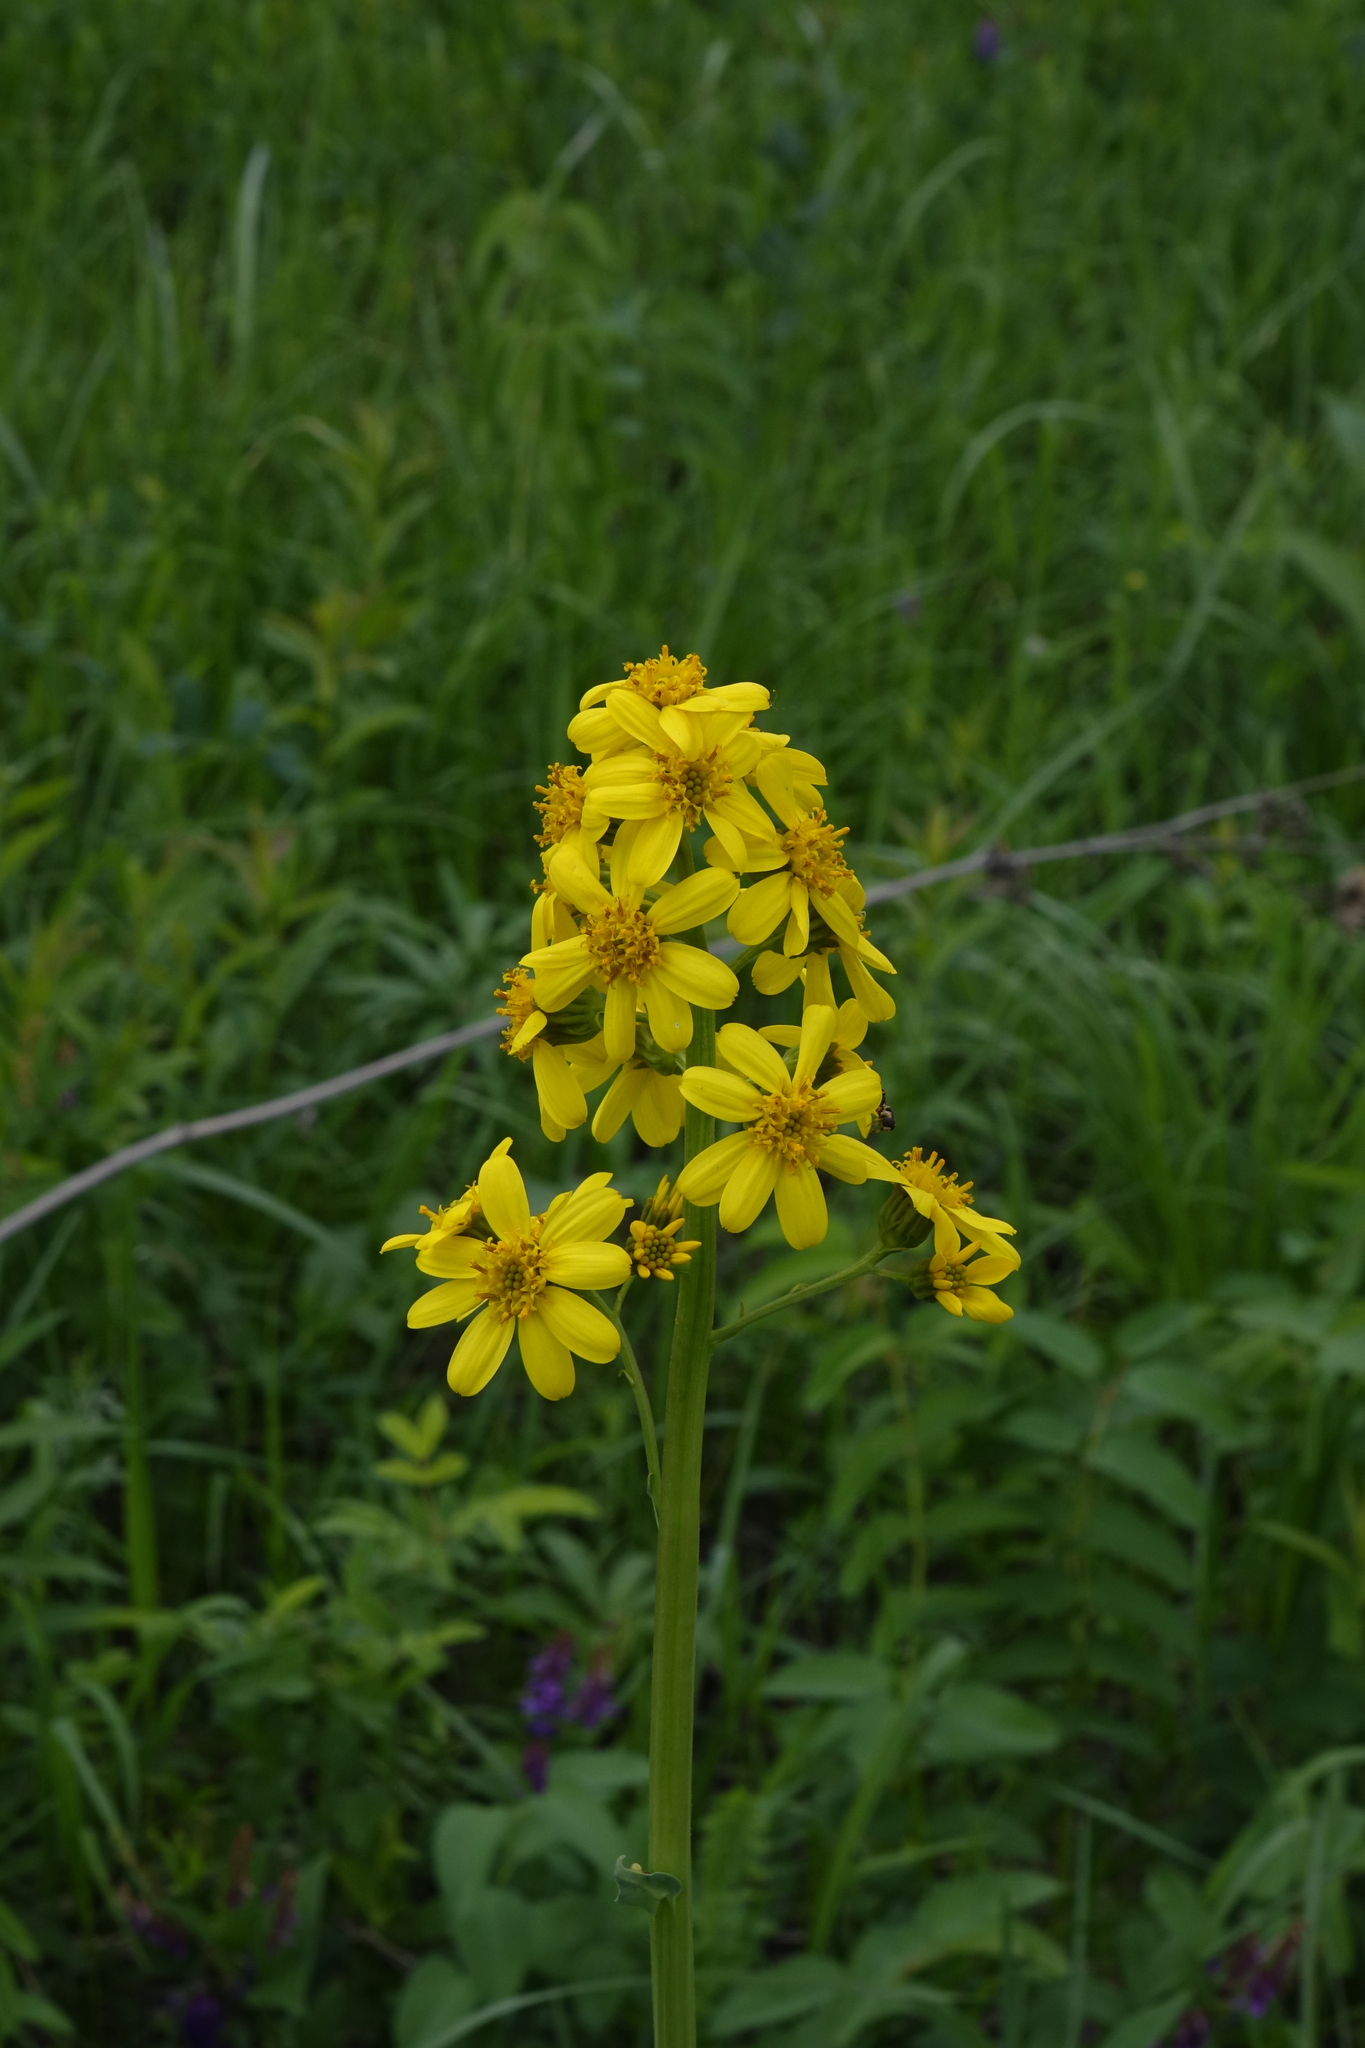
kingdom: Plantae
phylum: Tracheophyta
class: Magnoliopsida
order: Asterales
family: Asteraceae
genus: Ligularia
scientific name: Ligularia glauca
